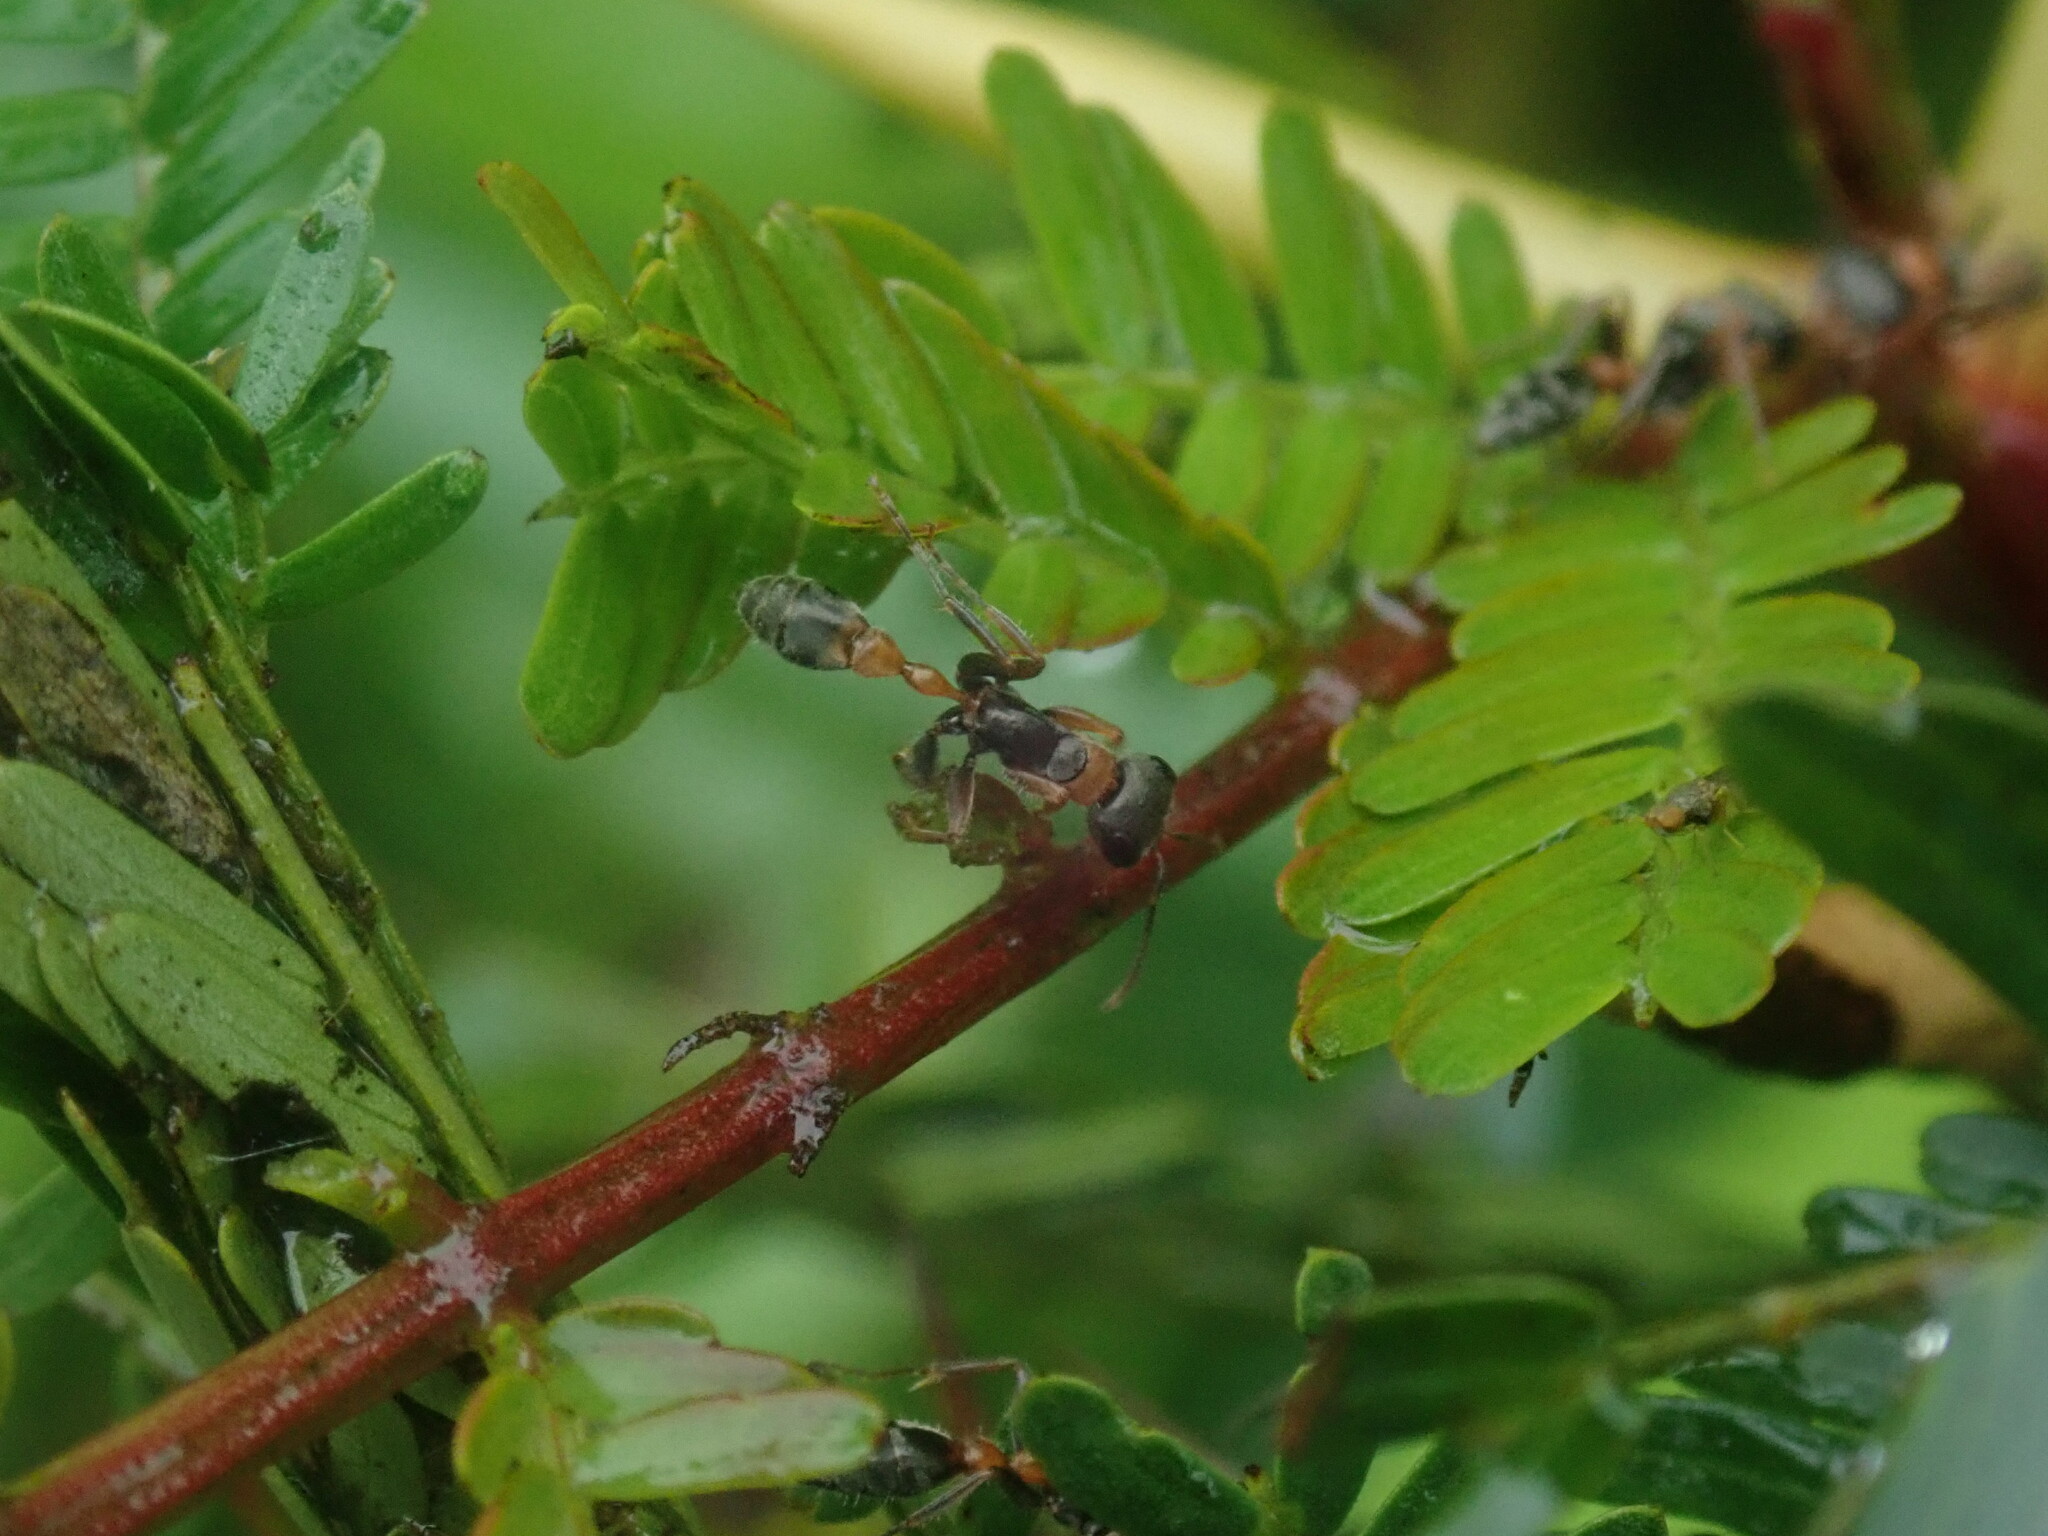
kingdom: Animalia
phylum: Arthropoda
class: Insecta
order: Hymenoptera
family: Formicidae
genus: Pseudomyrmex
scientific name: Pseudomyrmex gracilis
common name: Graceful twig ant
